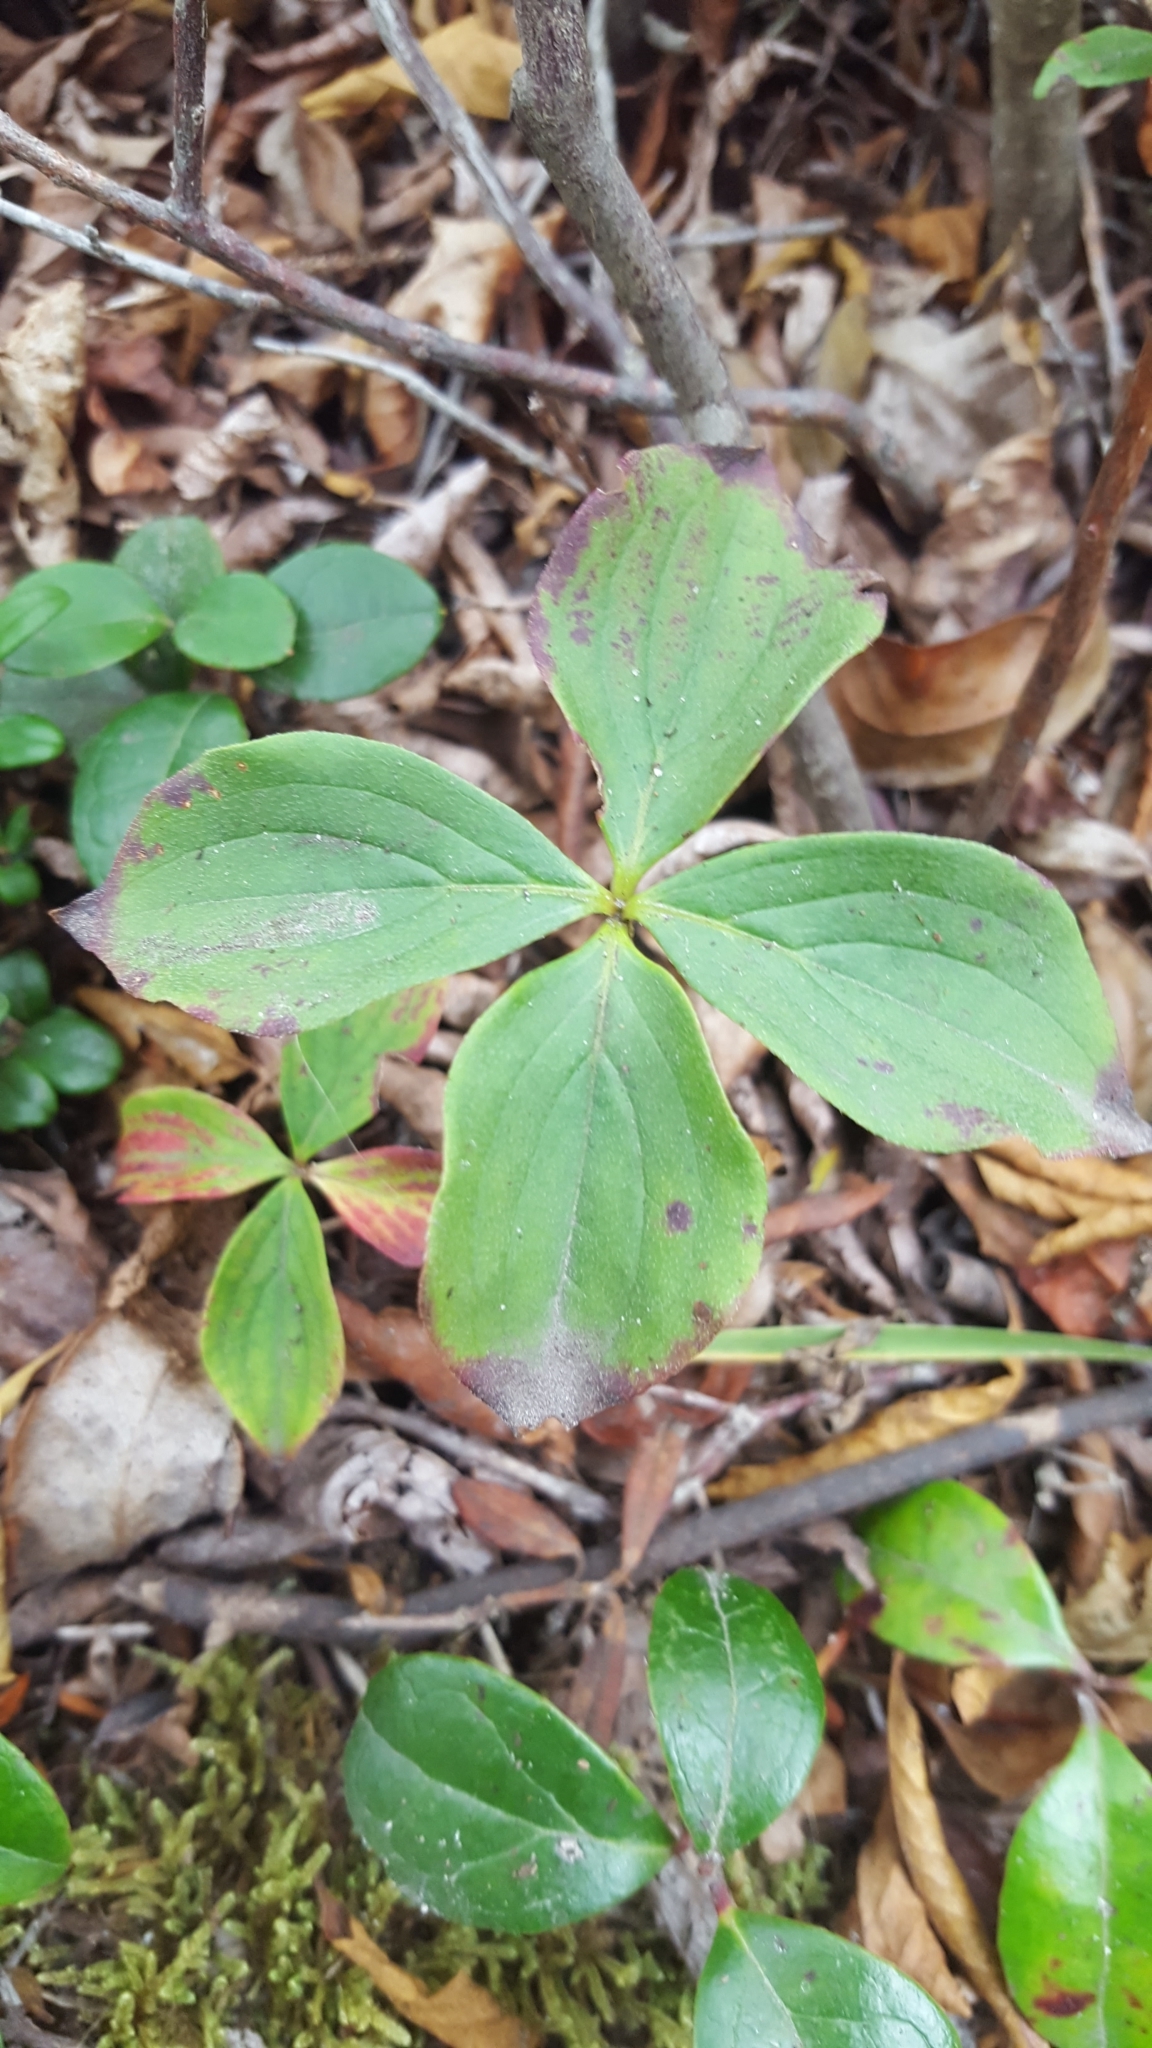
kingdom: Plantae
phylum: Tracheophyta
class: Magnoliopsida
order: Cornales
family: Cornaceae
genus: Cornus
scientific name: Cornus canadensis
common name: Creeping dogwood
